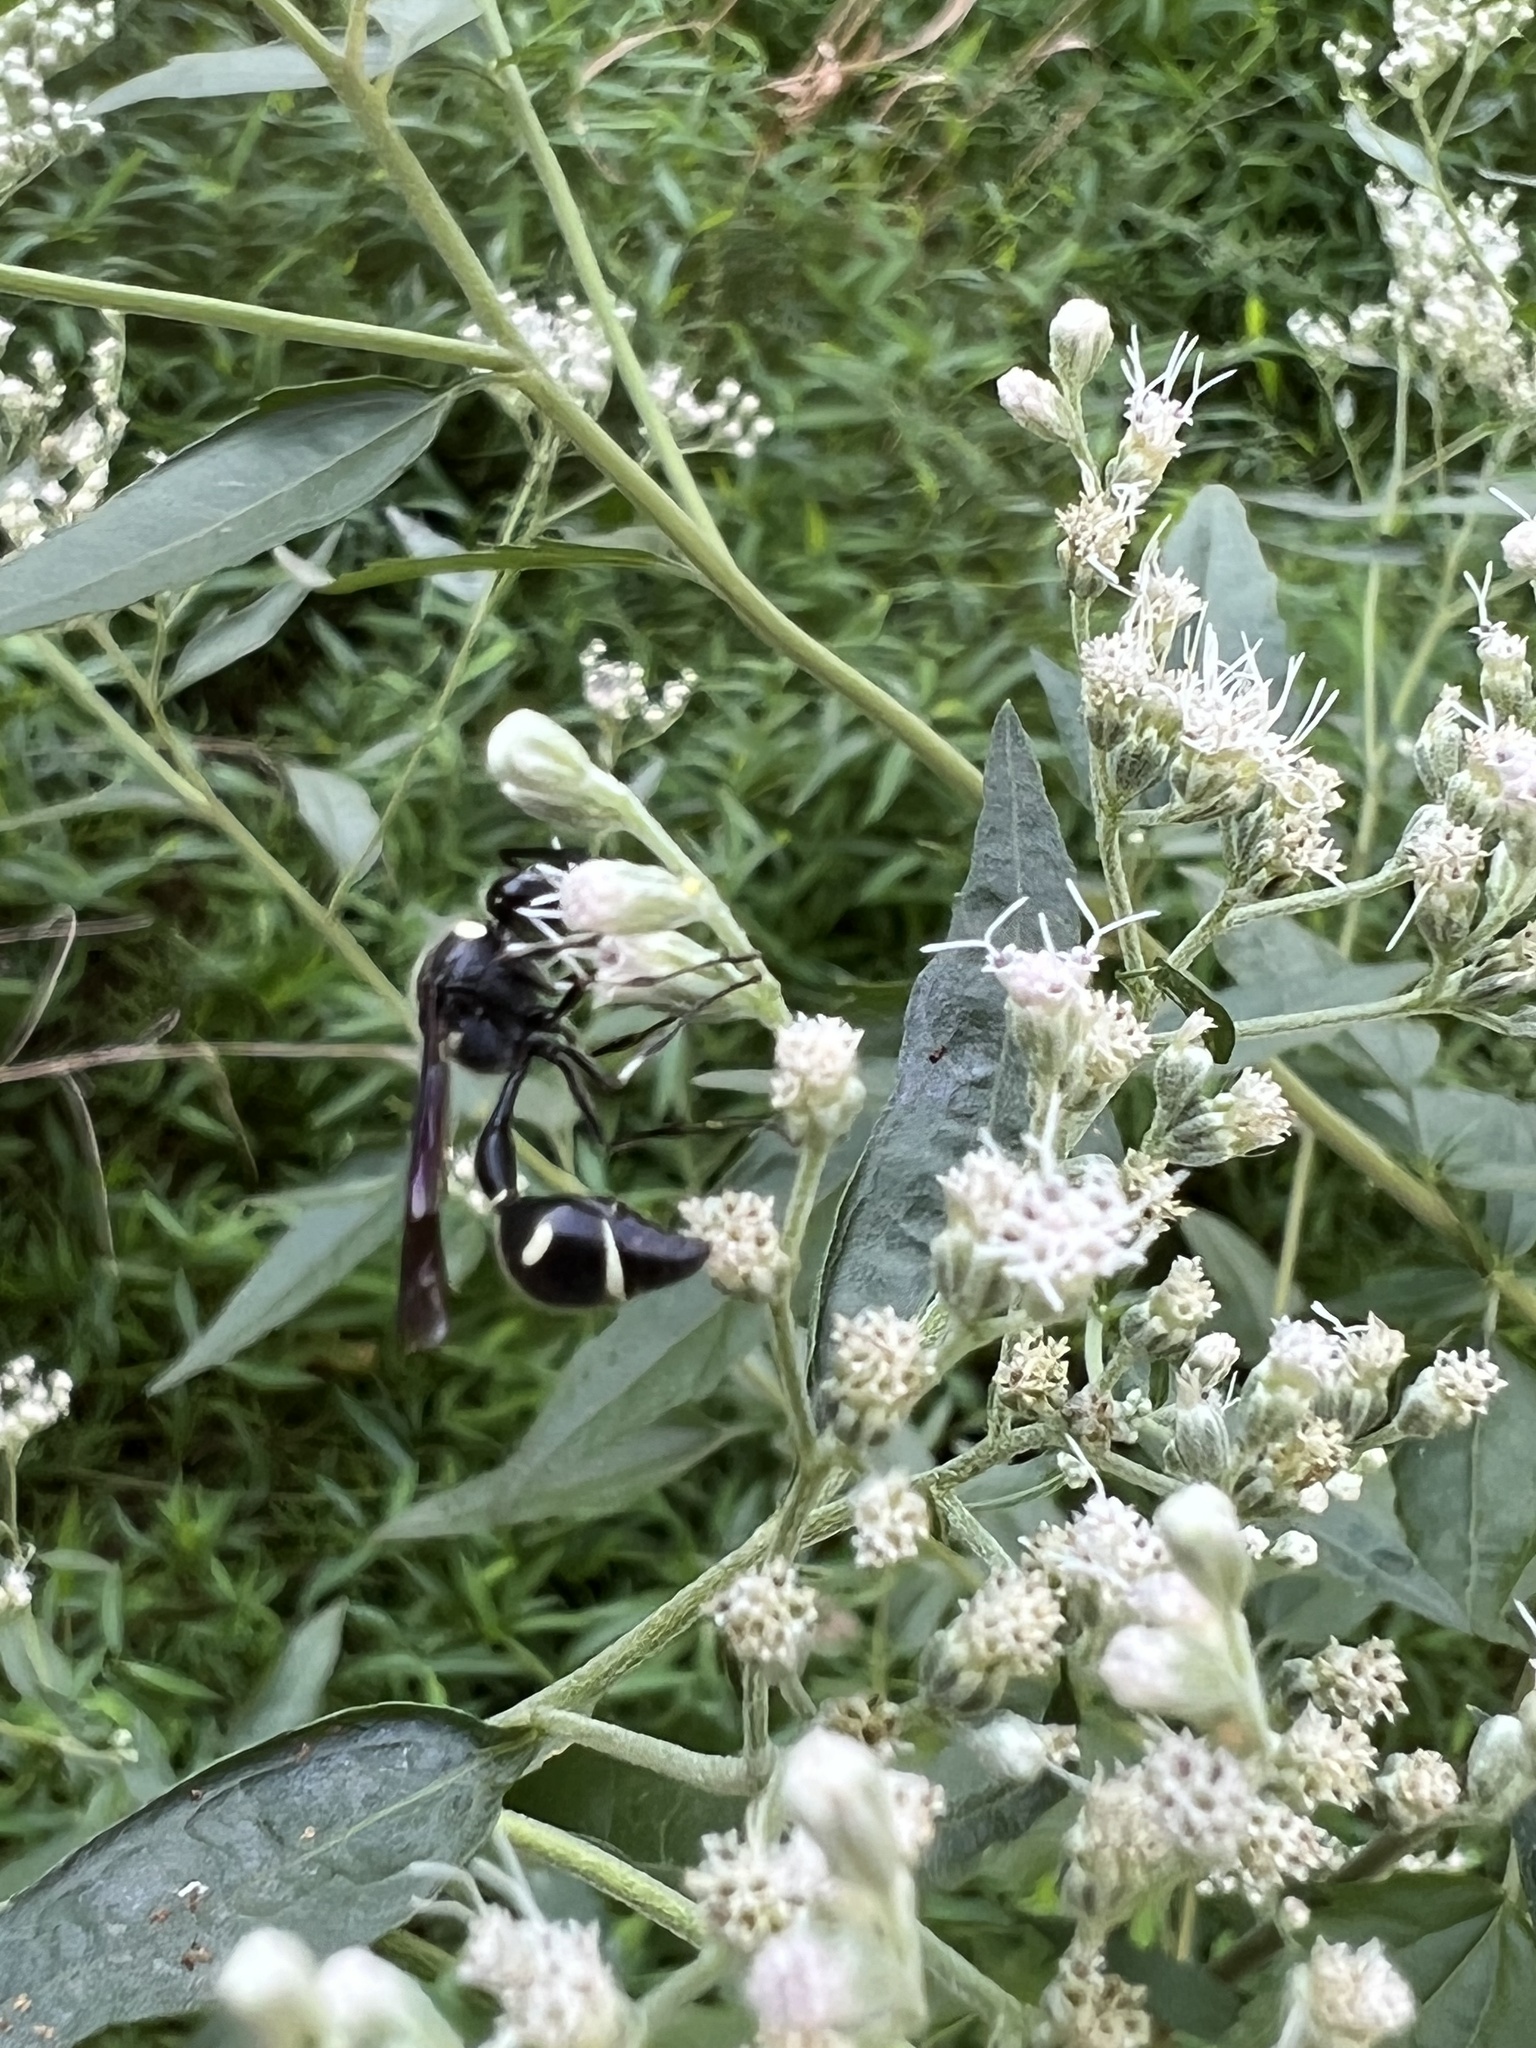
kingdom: Animalia
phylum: Arthropoda
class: Insecta
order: Hymenoptera
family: Vespidae
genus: Eumenes
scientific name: Eumenes fraternus
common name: Fraternal potter wasp
